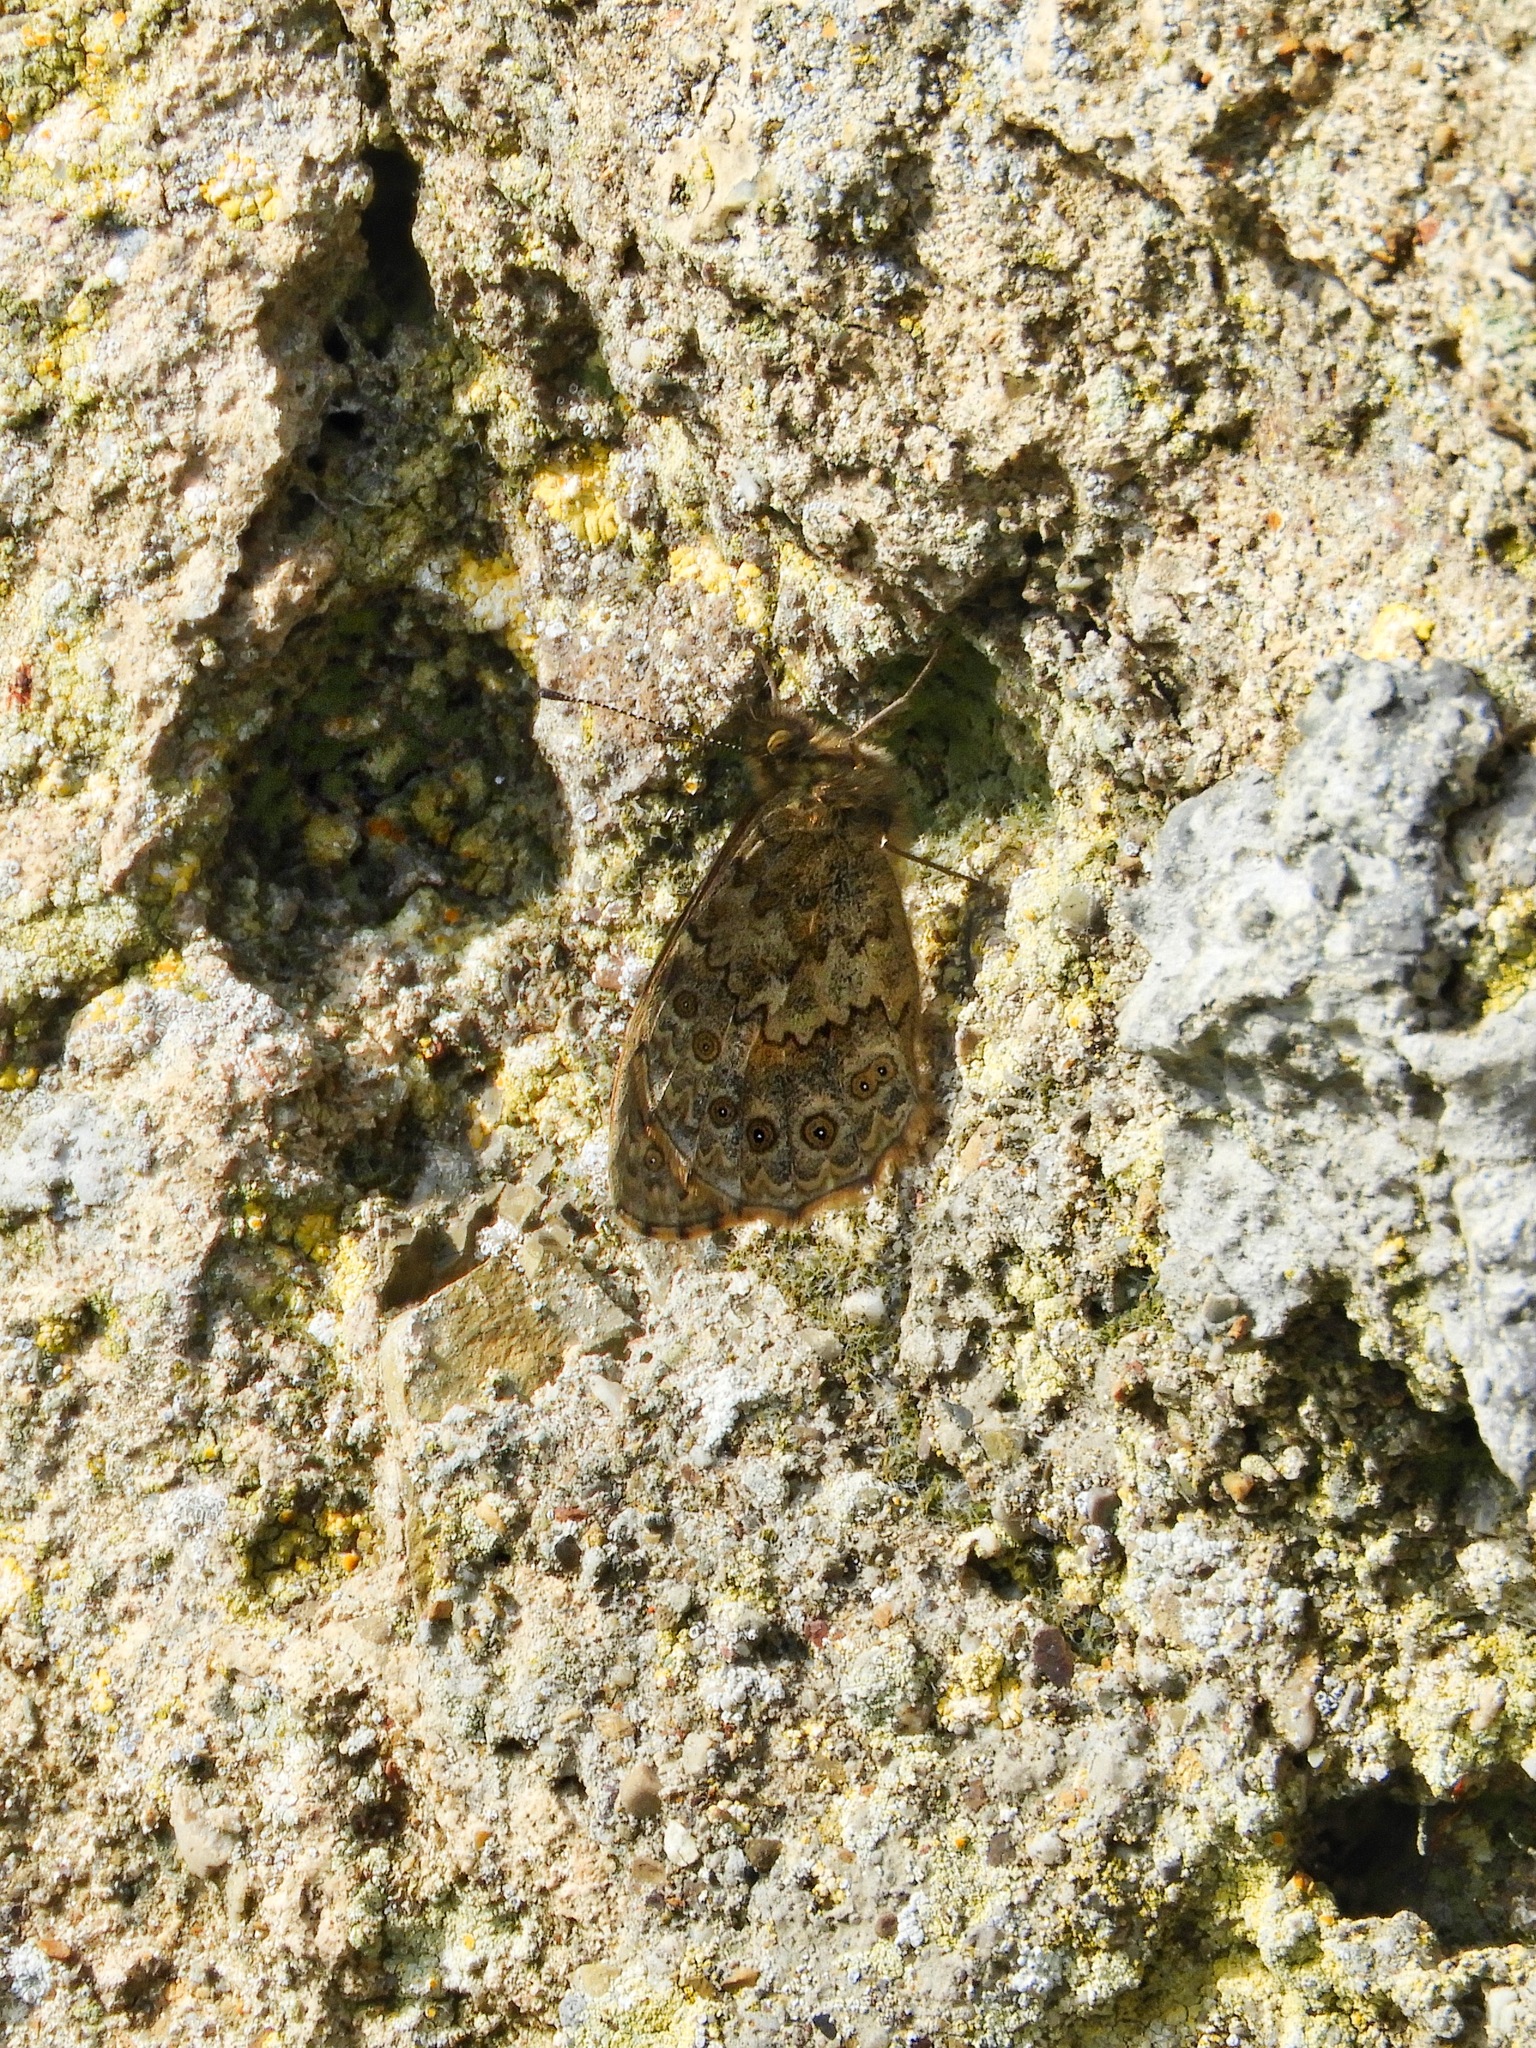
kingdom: Animalia
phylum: Arthropoda
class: Insecta
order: Lepidoptera
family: Nymphalidae
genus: Pararge
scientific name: Pararge Lasiommata megera
